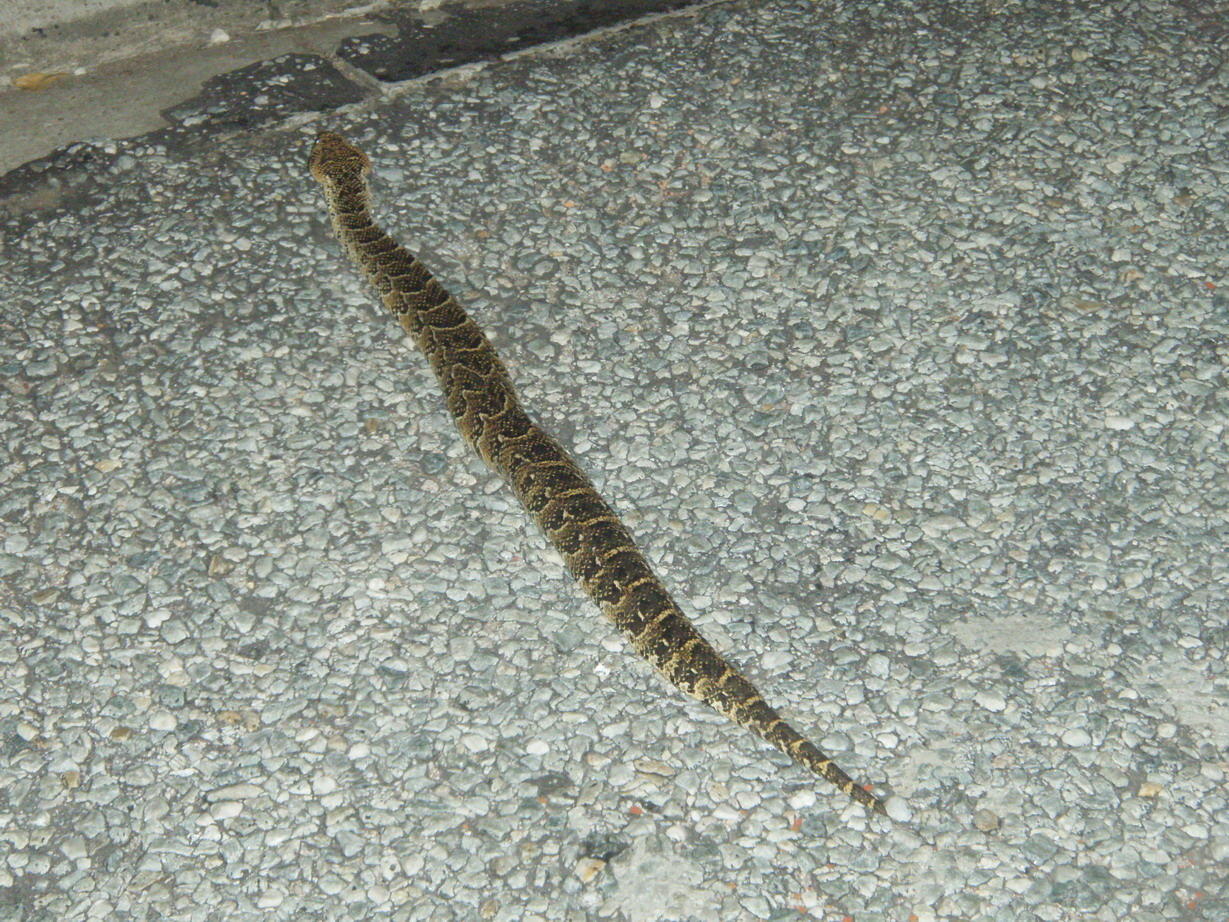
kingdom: Animalia
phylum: Chordata
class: Squamata
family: Viperidae
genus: Bitis
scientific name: Bitis arietans
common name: Puff adder
